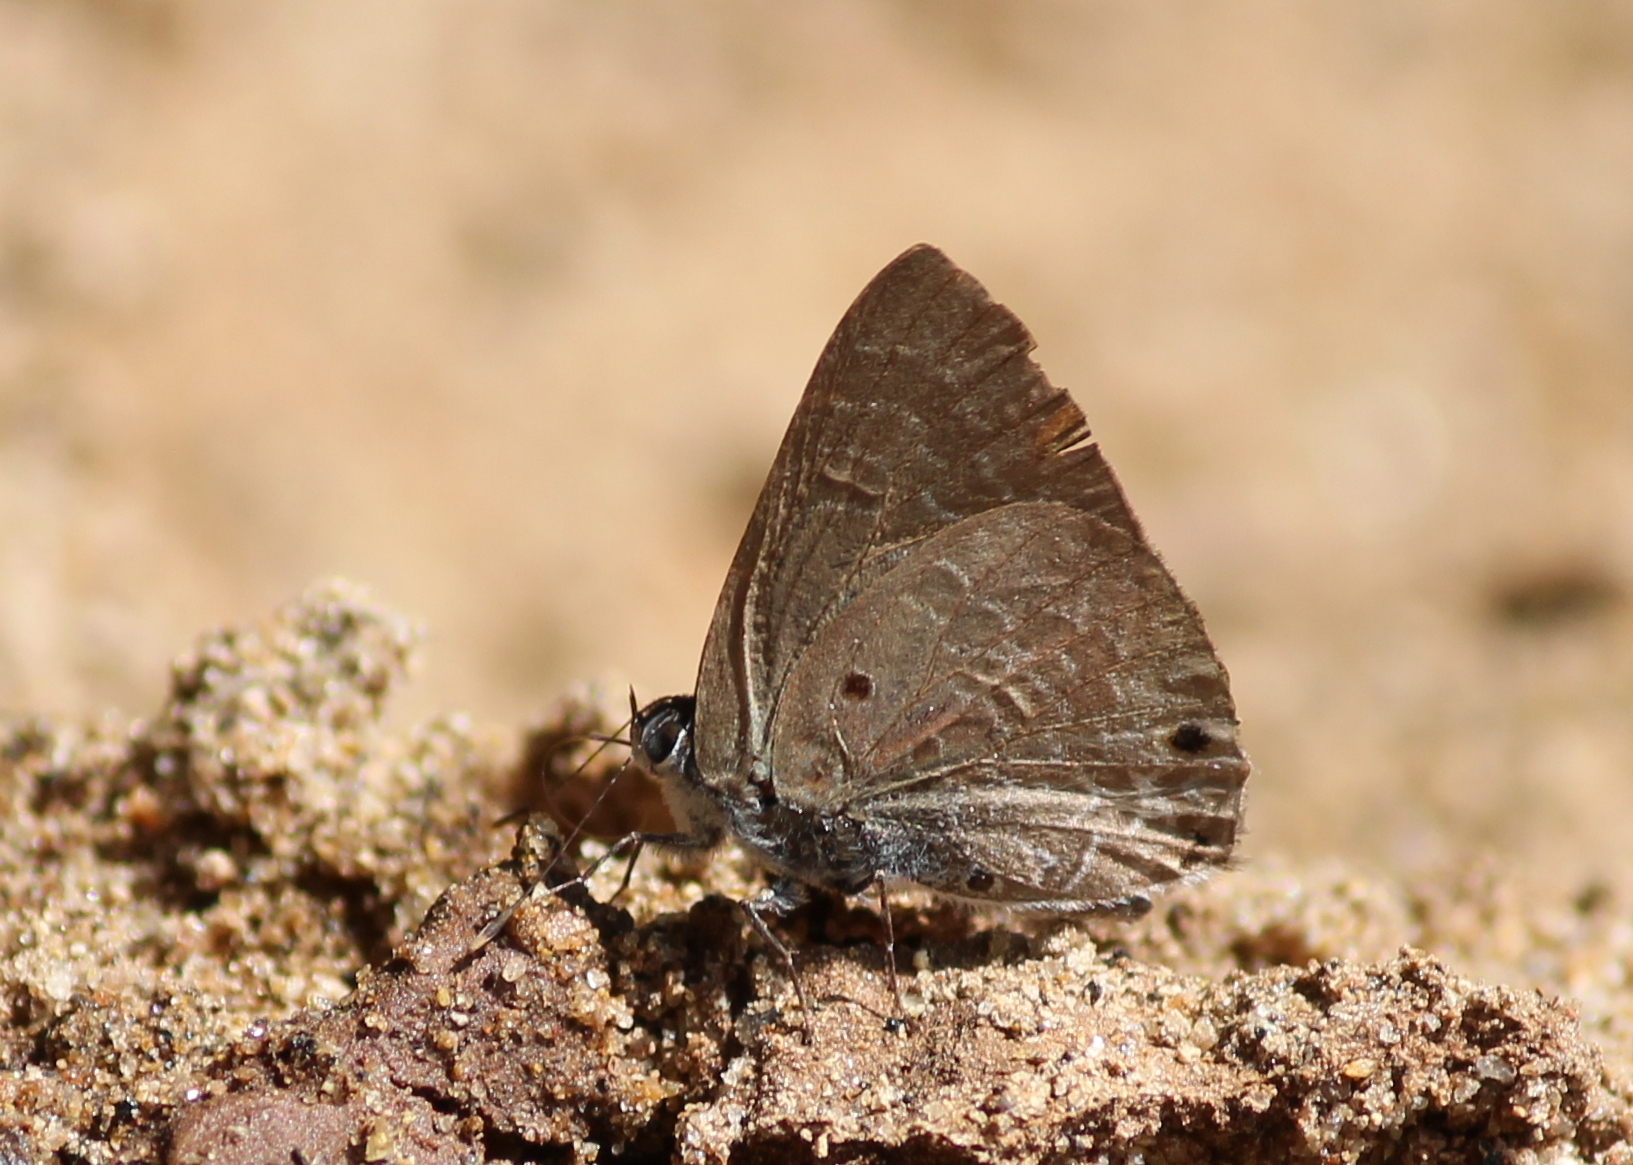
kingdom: Animalia
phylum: Arthropoda
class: Insecta
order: Lepidoptera
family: Lycaenidae
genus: Anthene
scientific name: Anthene lycaenina
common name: Pointed ciliate blue
